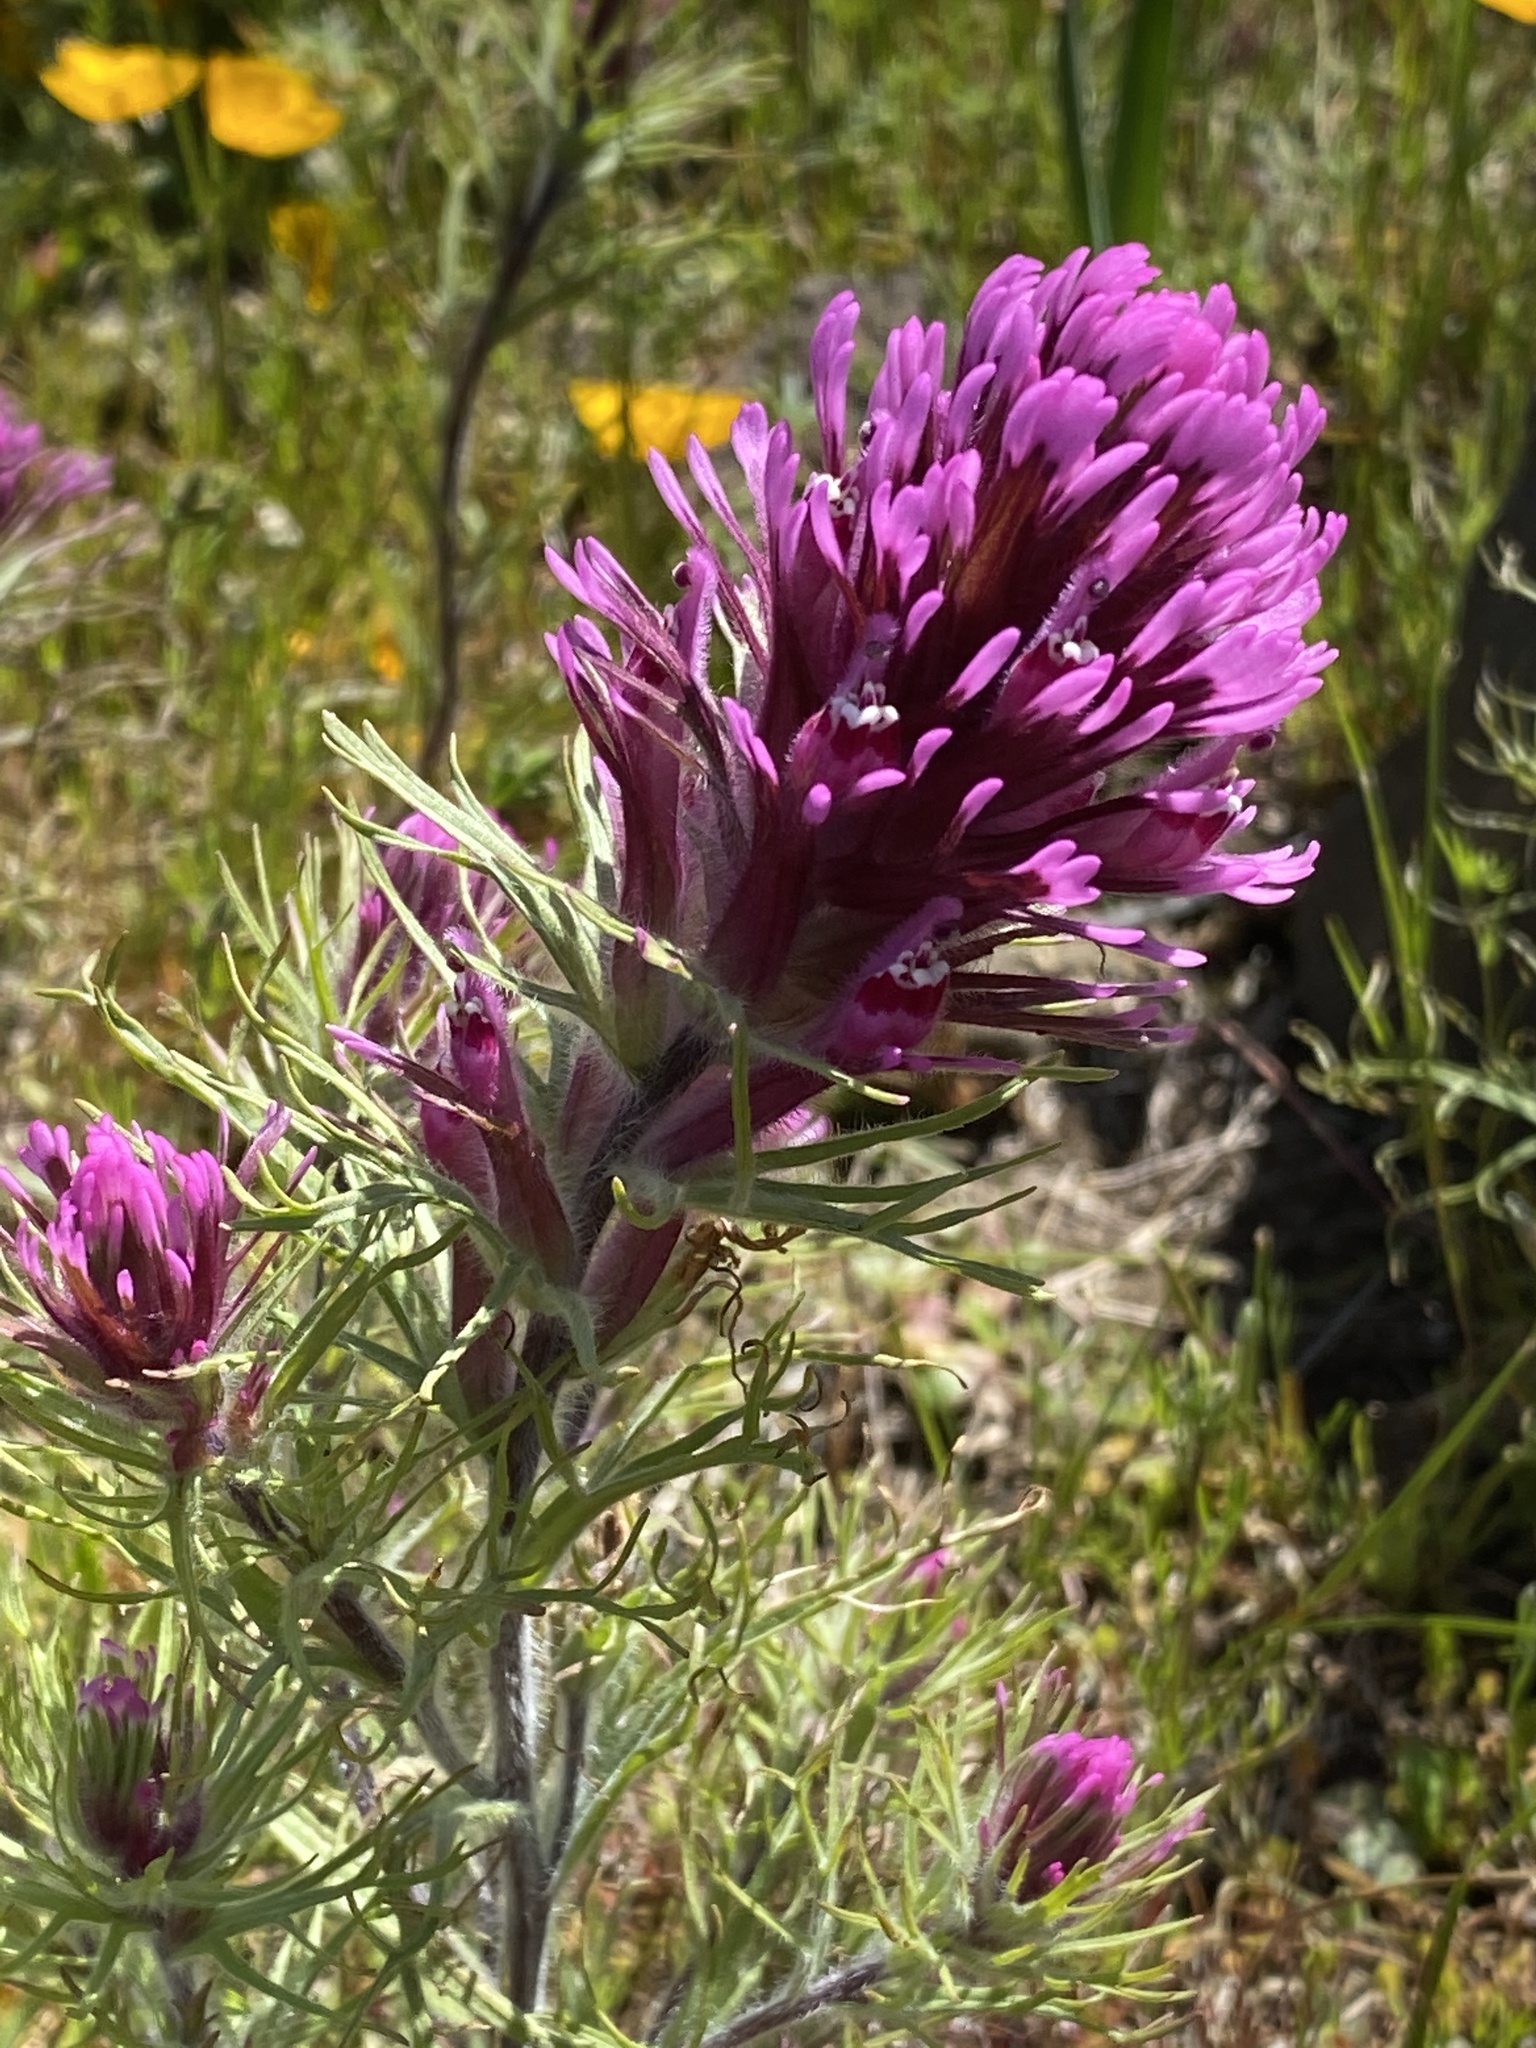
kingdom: Plantae
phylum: Tracheophyta
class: Magnoliopsida
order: Lamiales
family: Orobanchaceae
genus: Castilleja
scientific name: Castilleja exserta
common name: Purple owl-clover
